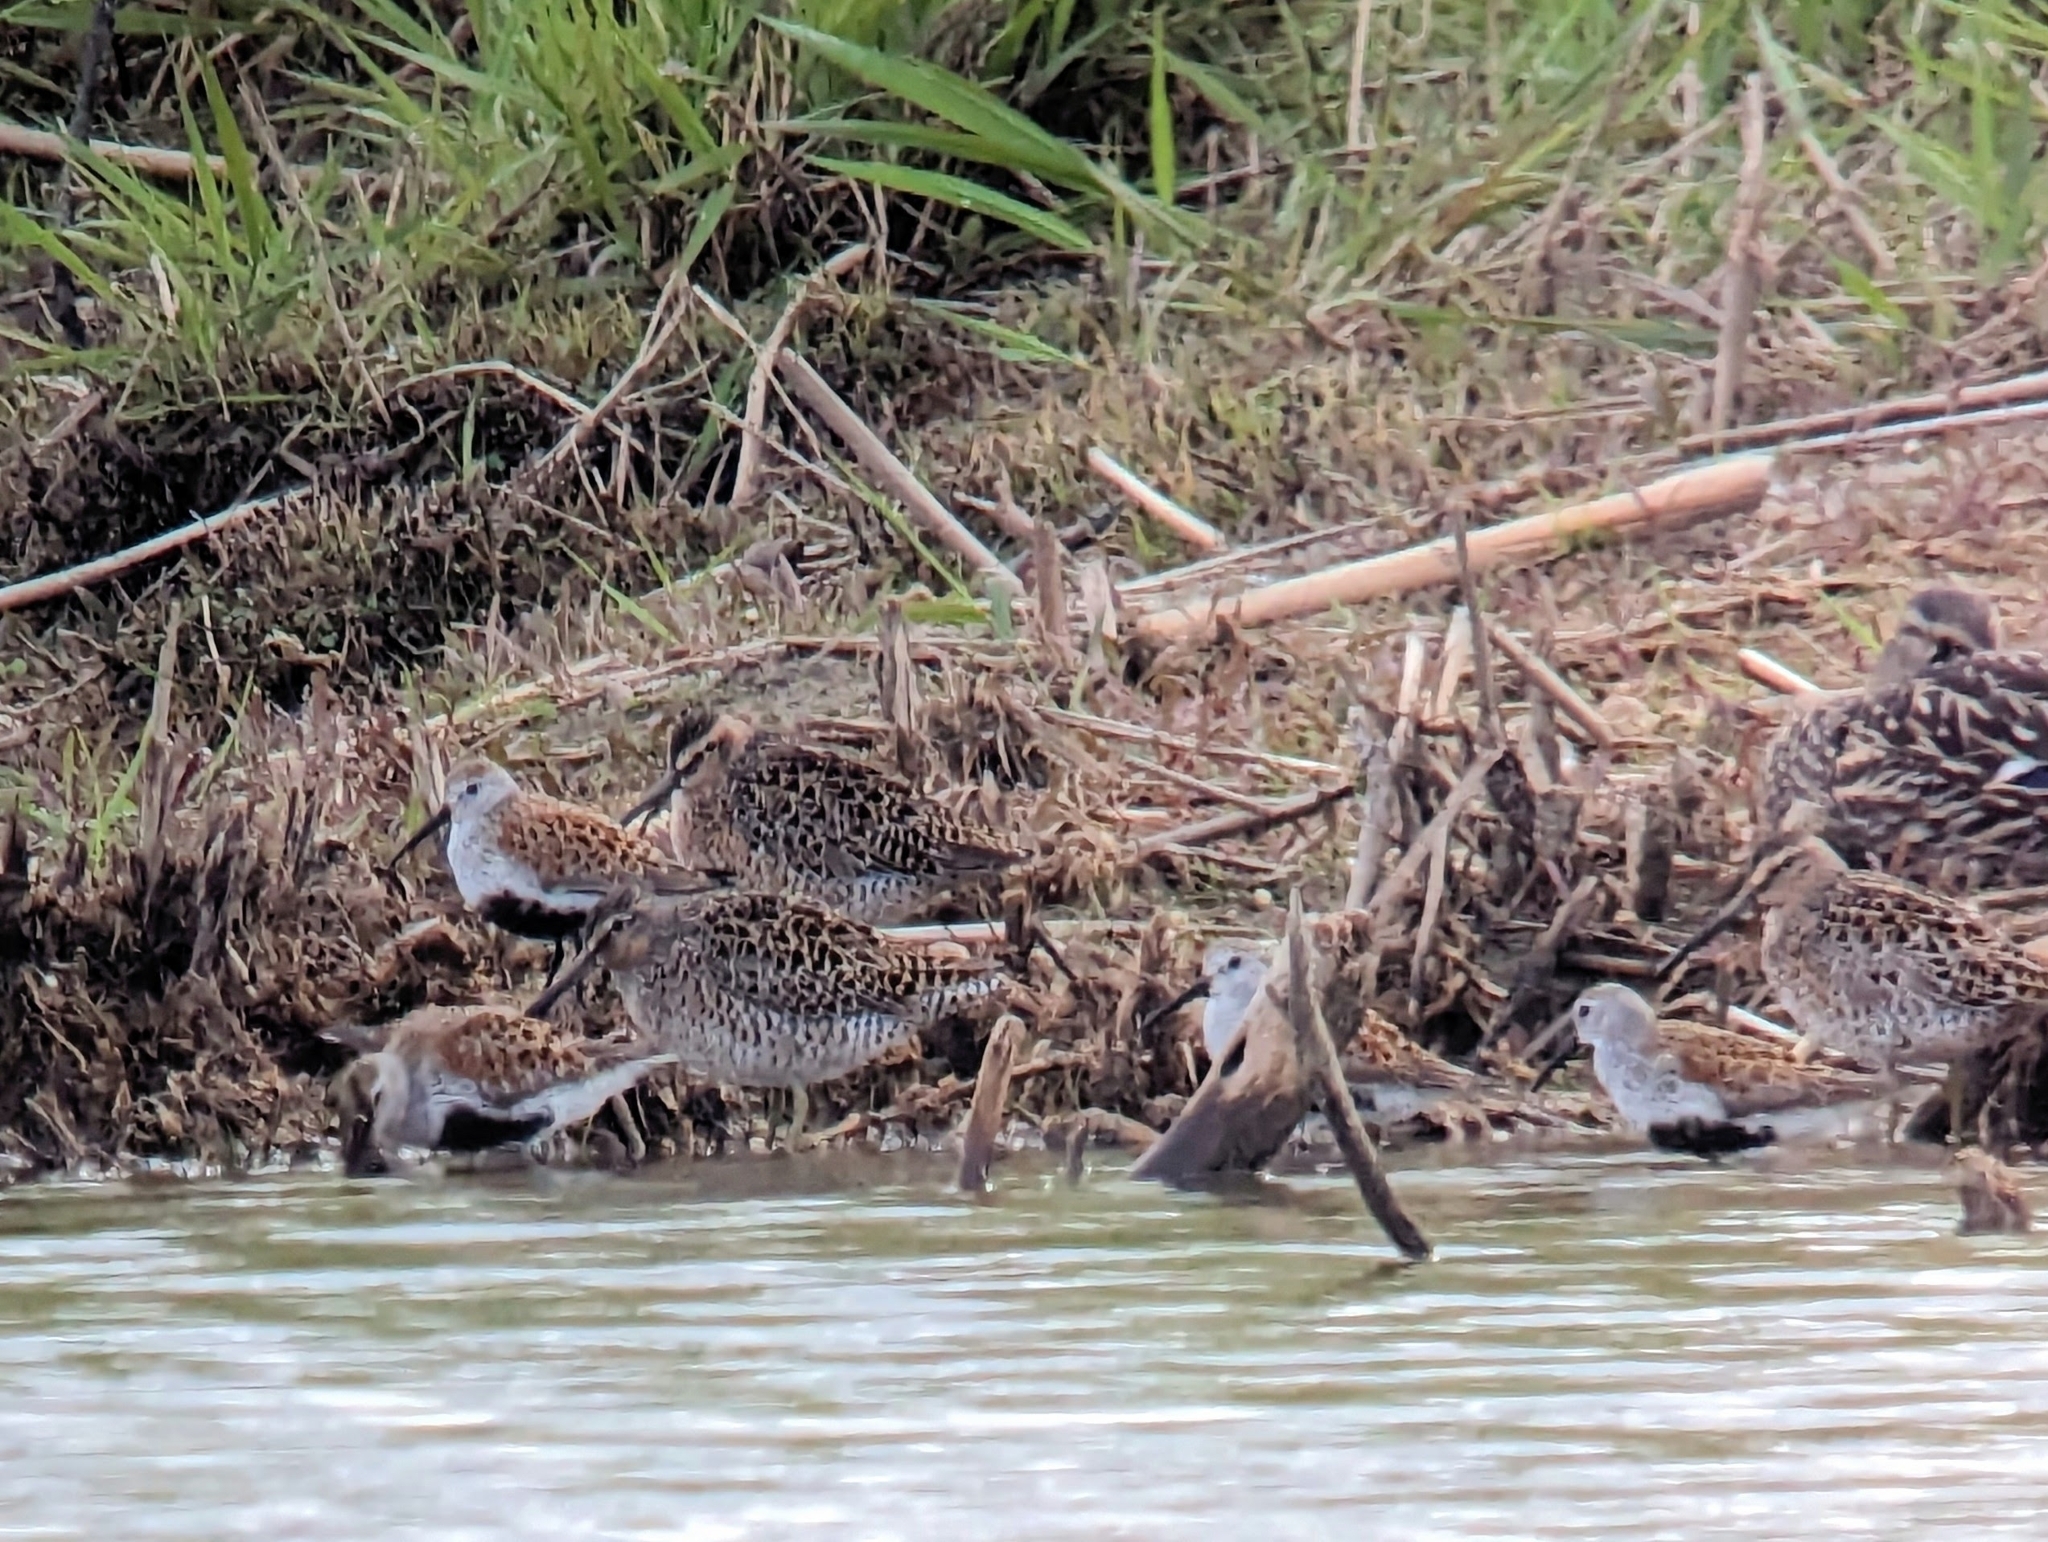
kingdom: Animalia
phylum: Chordata
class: Aves
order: Charadriiformes
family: Scolopacidae
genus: Limnodromus
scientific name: Limnodromus griseus
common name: Short-billed dowitcher
